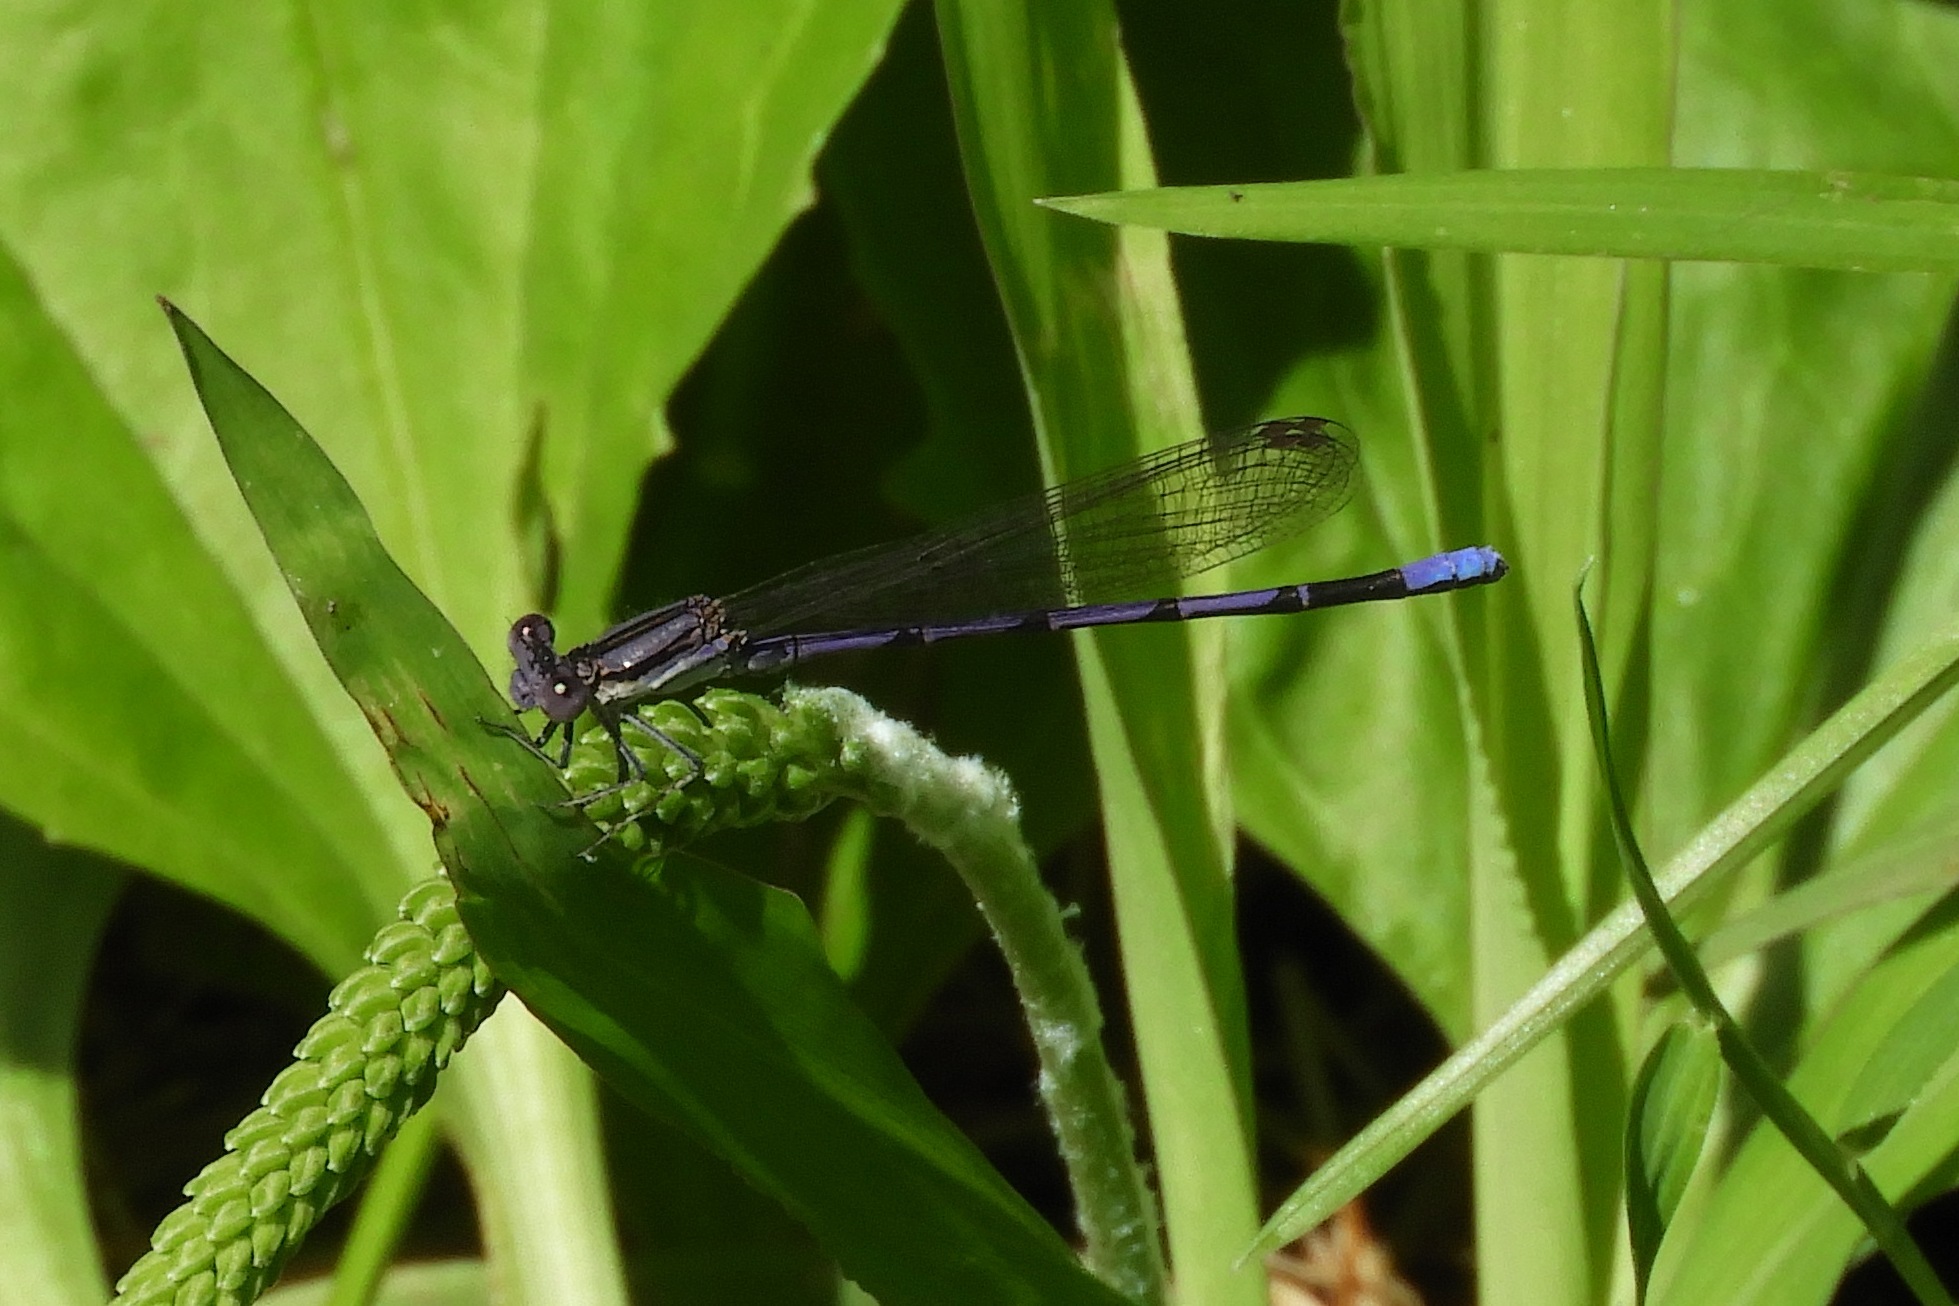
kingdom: Animalia
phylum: Arthropoda
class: Insecta
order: Odonata
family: Coenagrionidae
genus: Argia
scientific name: Argia fumipennis
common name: Variable dancer
